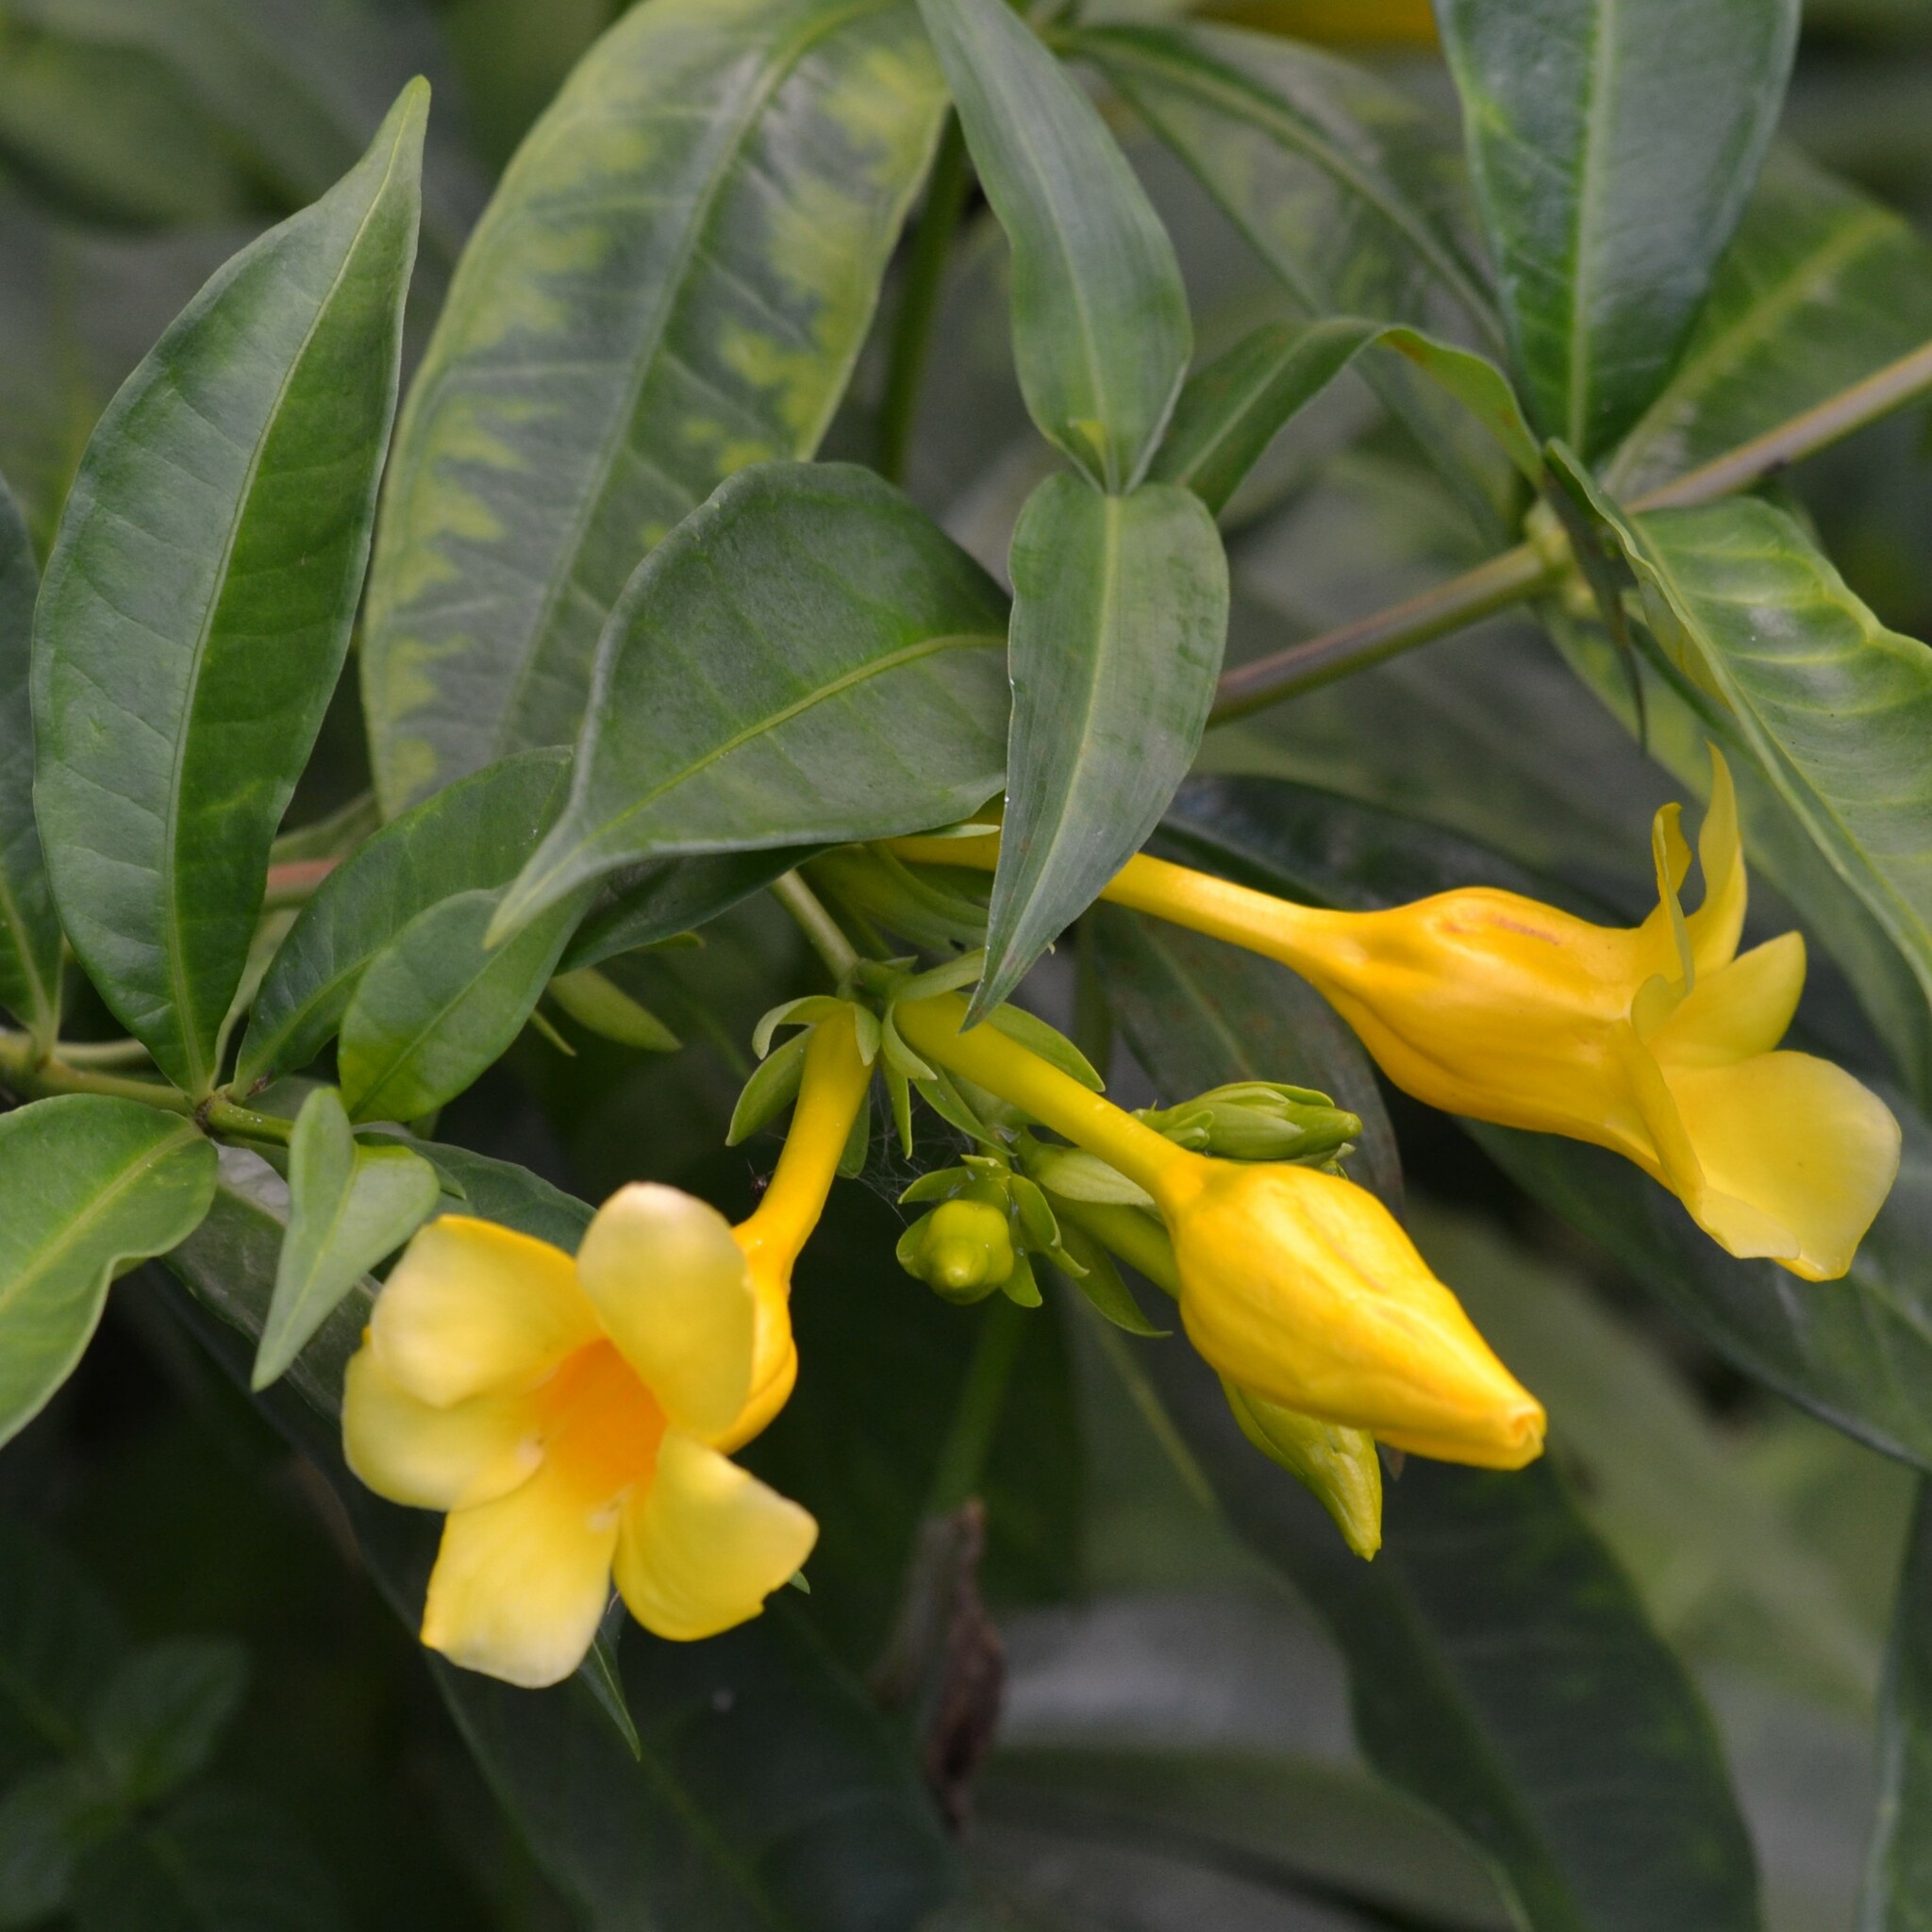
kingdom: Plantae
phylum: Tracheophyta
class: Magnoliopsida
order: Gentianales
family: Apocynaceae
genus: Allamanda
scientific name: Allamanda cathartica
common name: Golden trumpet
